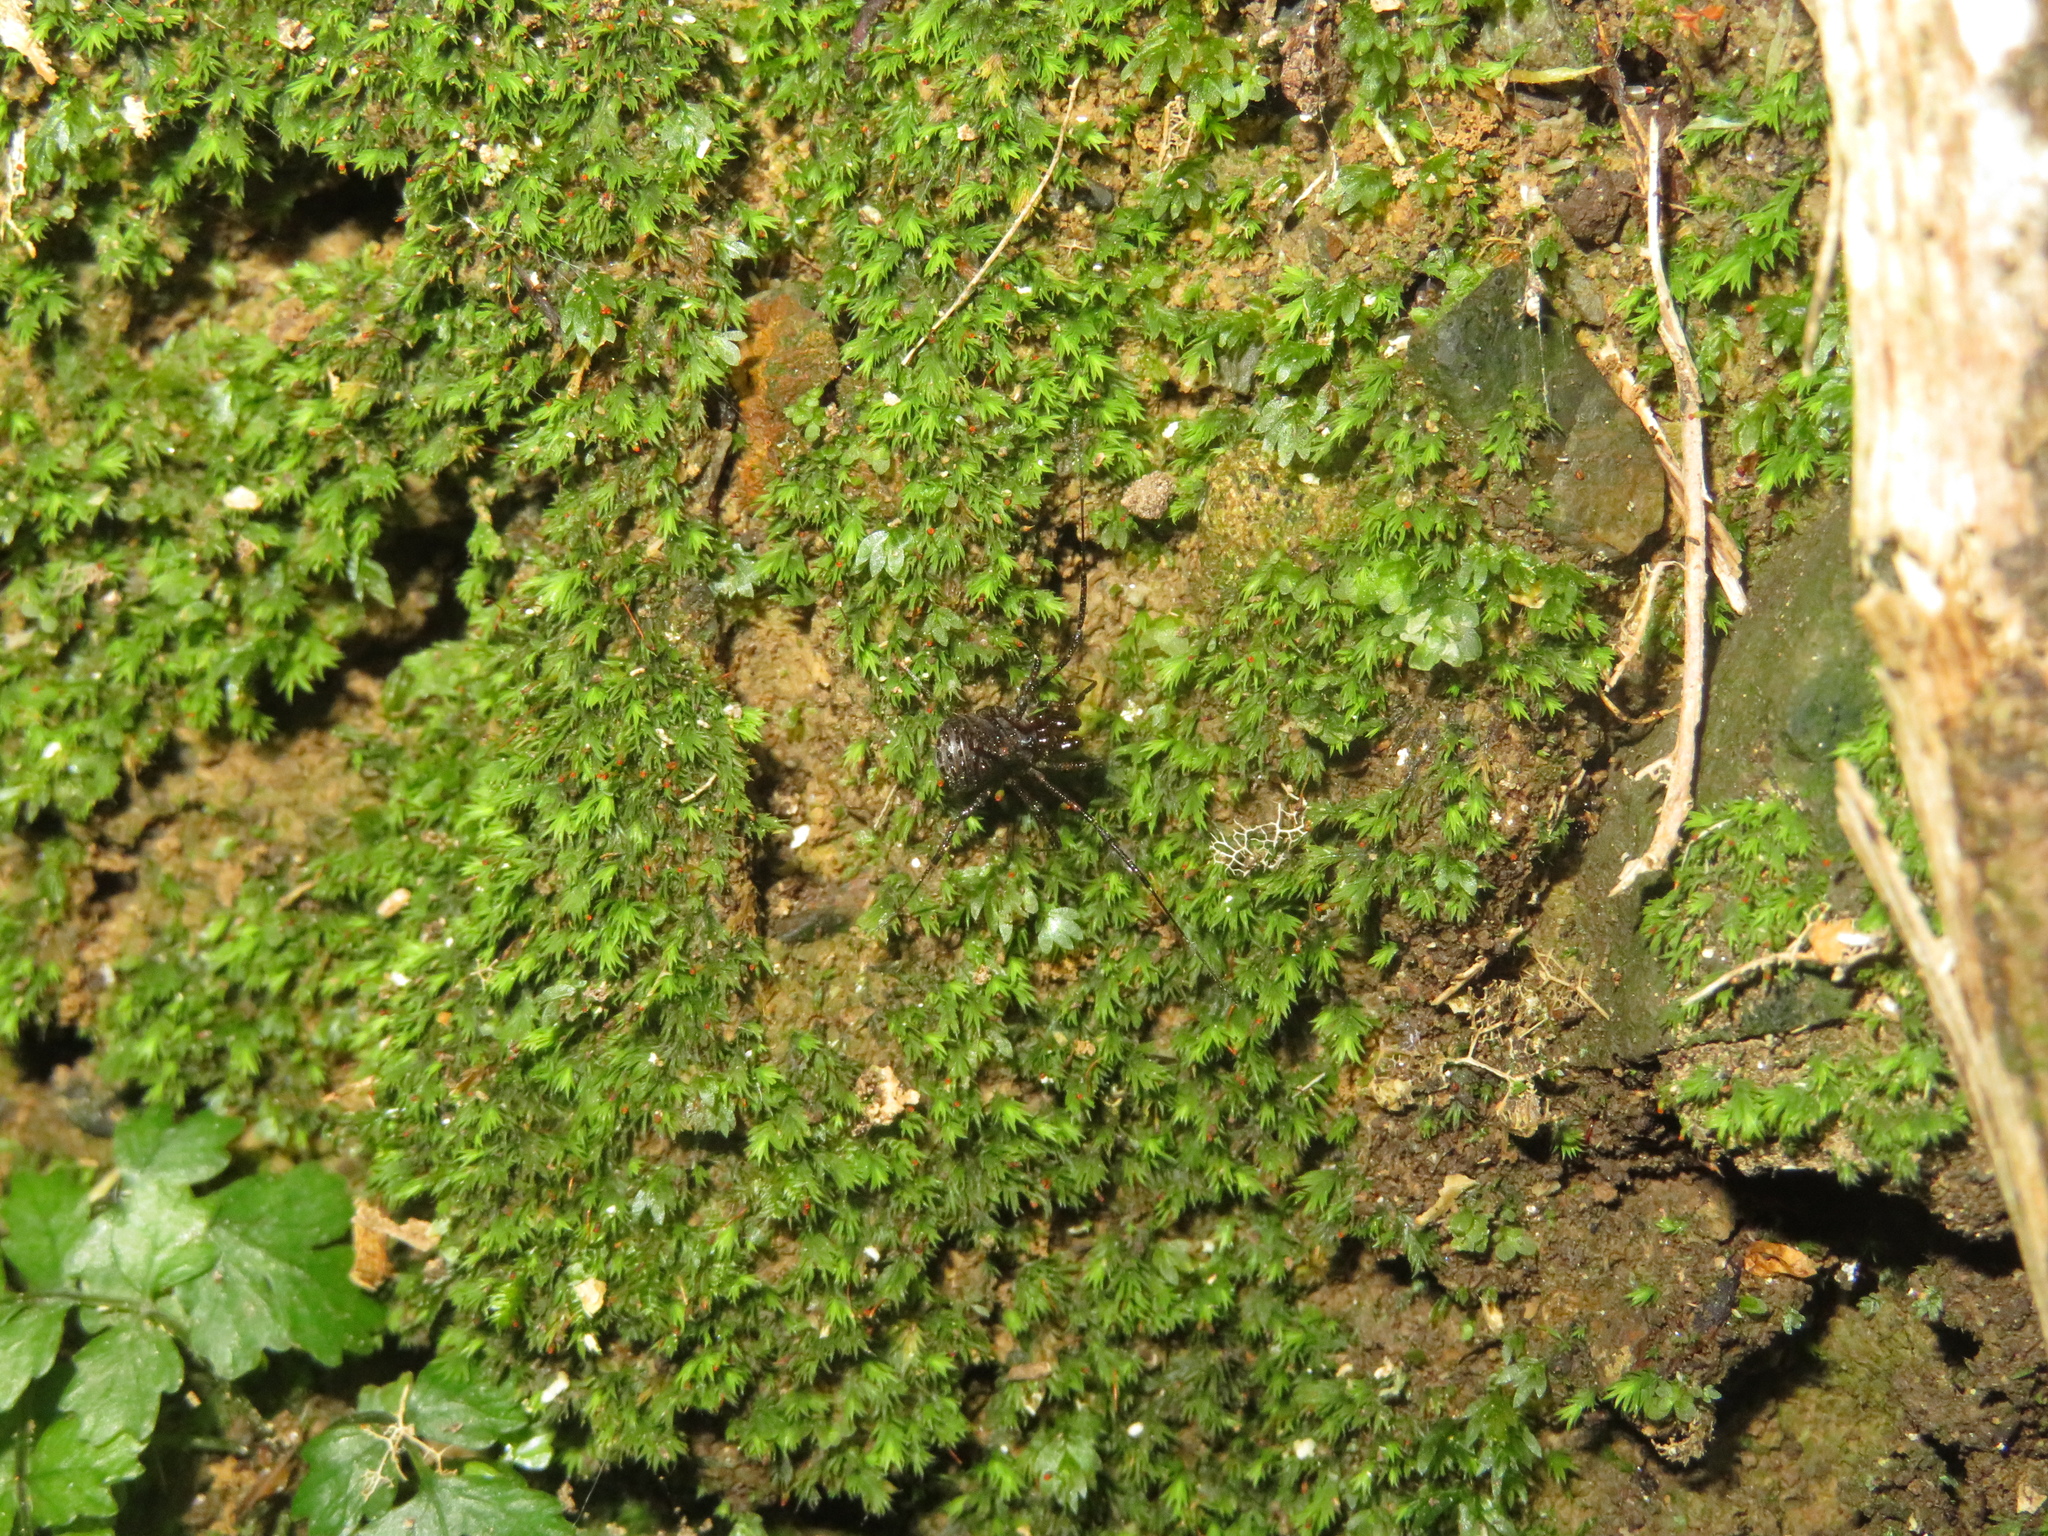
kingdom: Animalia
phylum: Arthropoda
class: Arachnida
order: Opiliones
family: Triaenonychidae
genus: Hendea
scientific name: Hendea myersi
